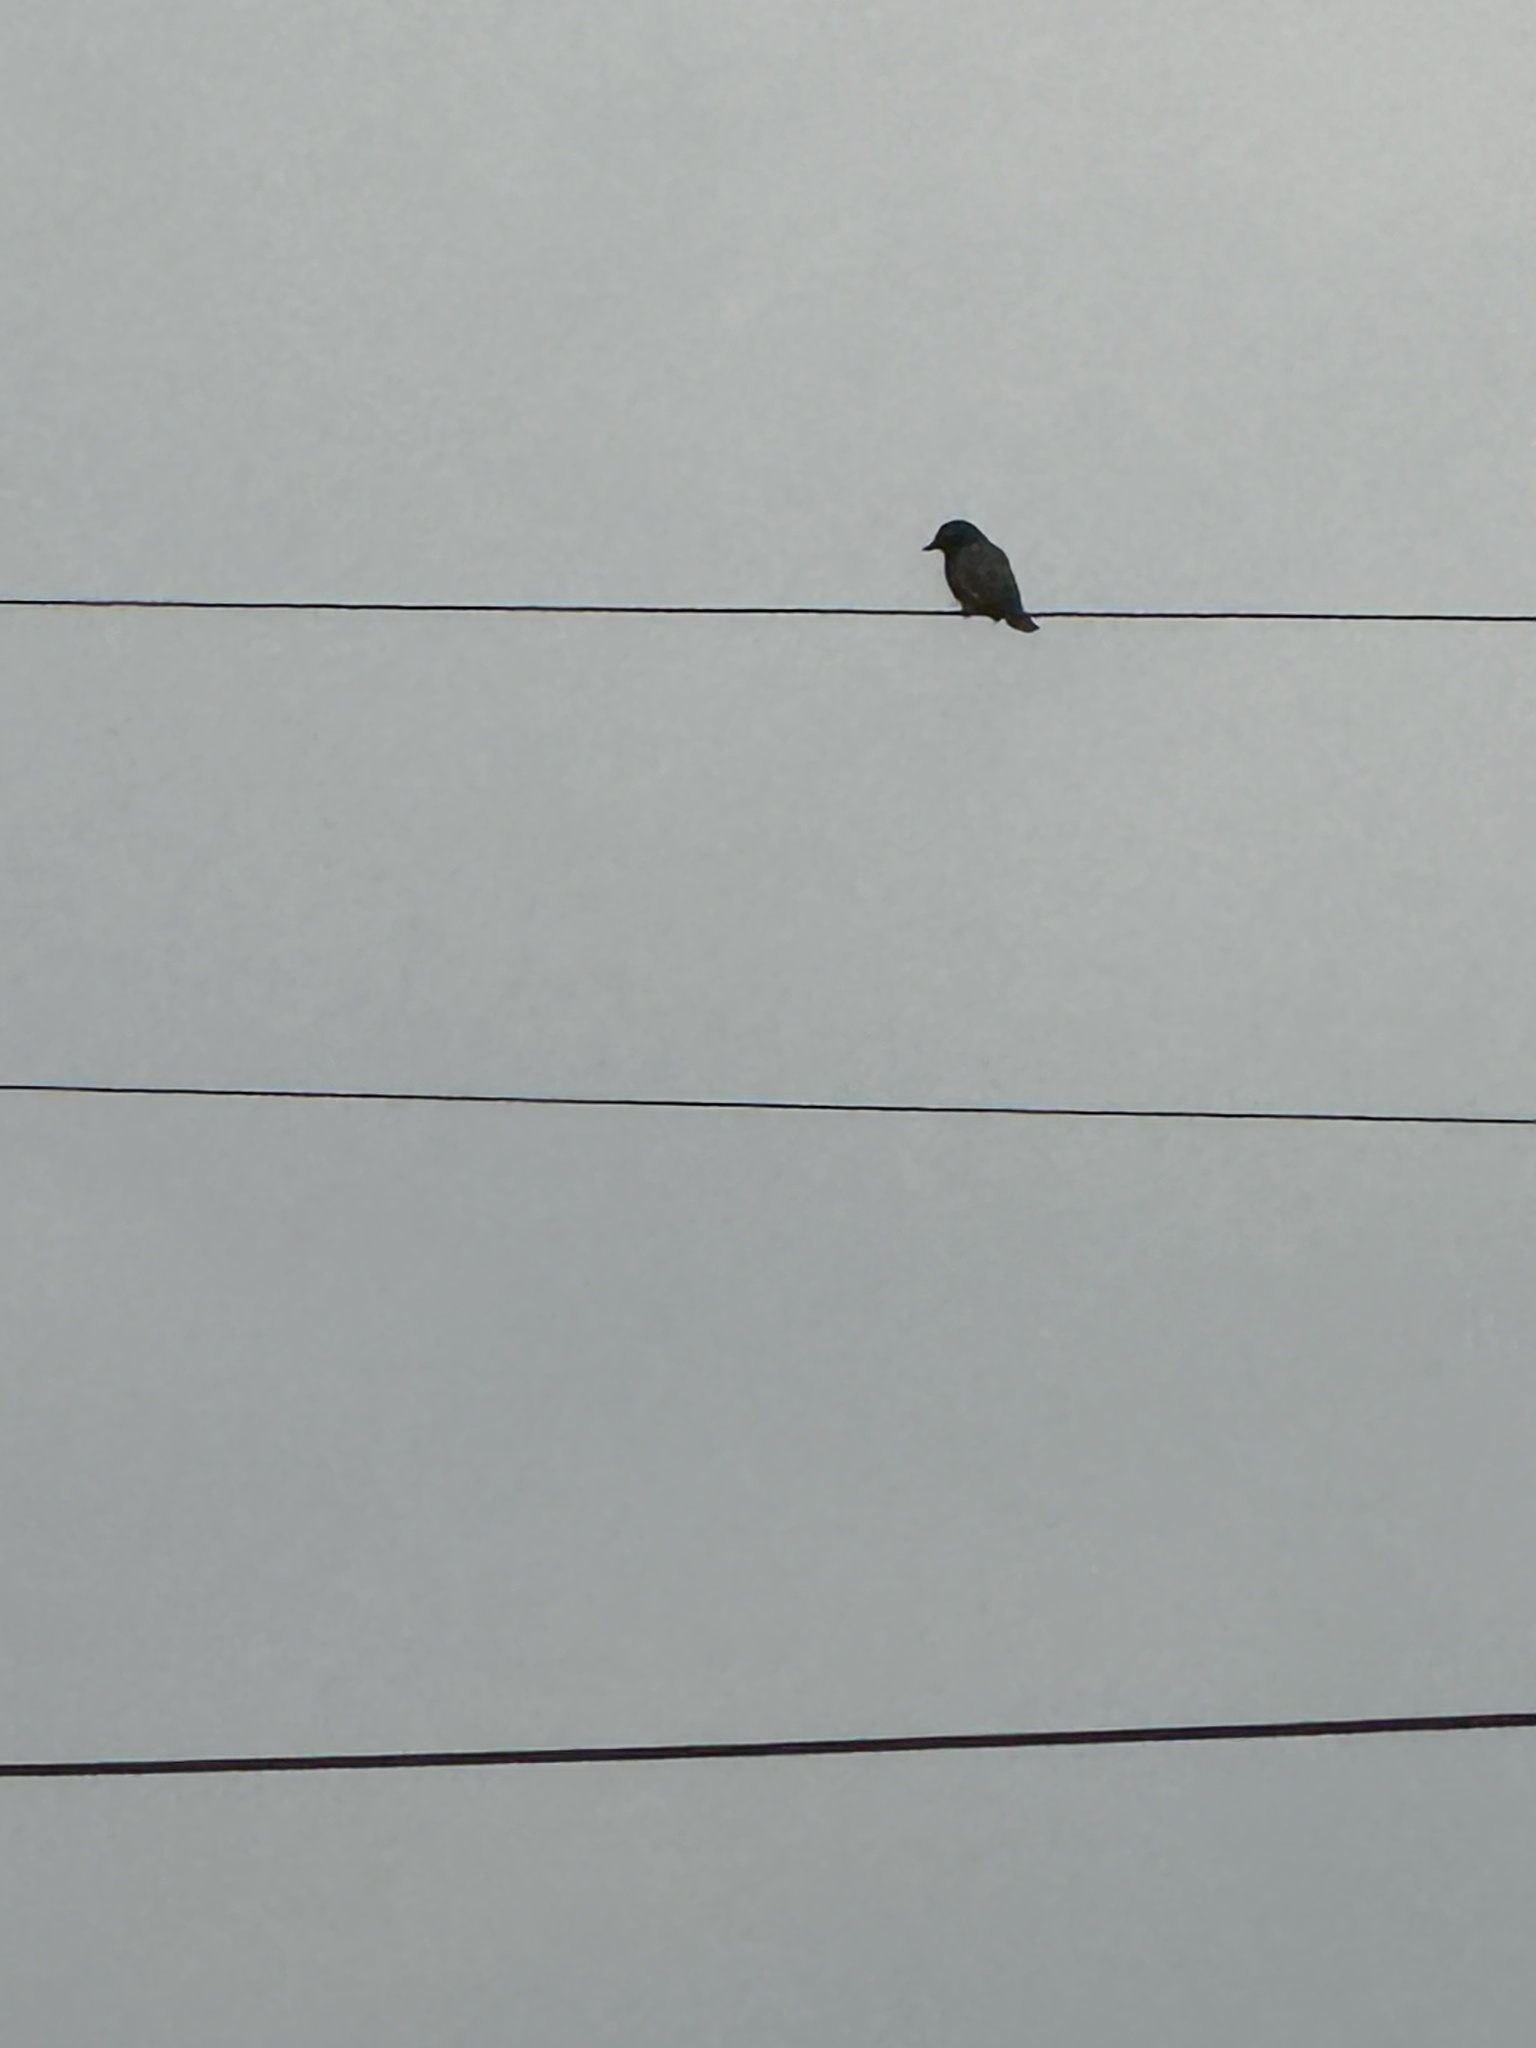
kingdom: Animalia
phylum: Chordata
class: Aves
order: Passeriformes
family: Turdidae
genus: Sialia
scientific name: Sialia mexicana
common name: Western bluebird
